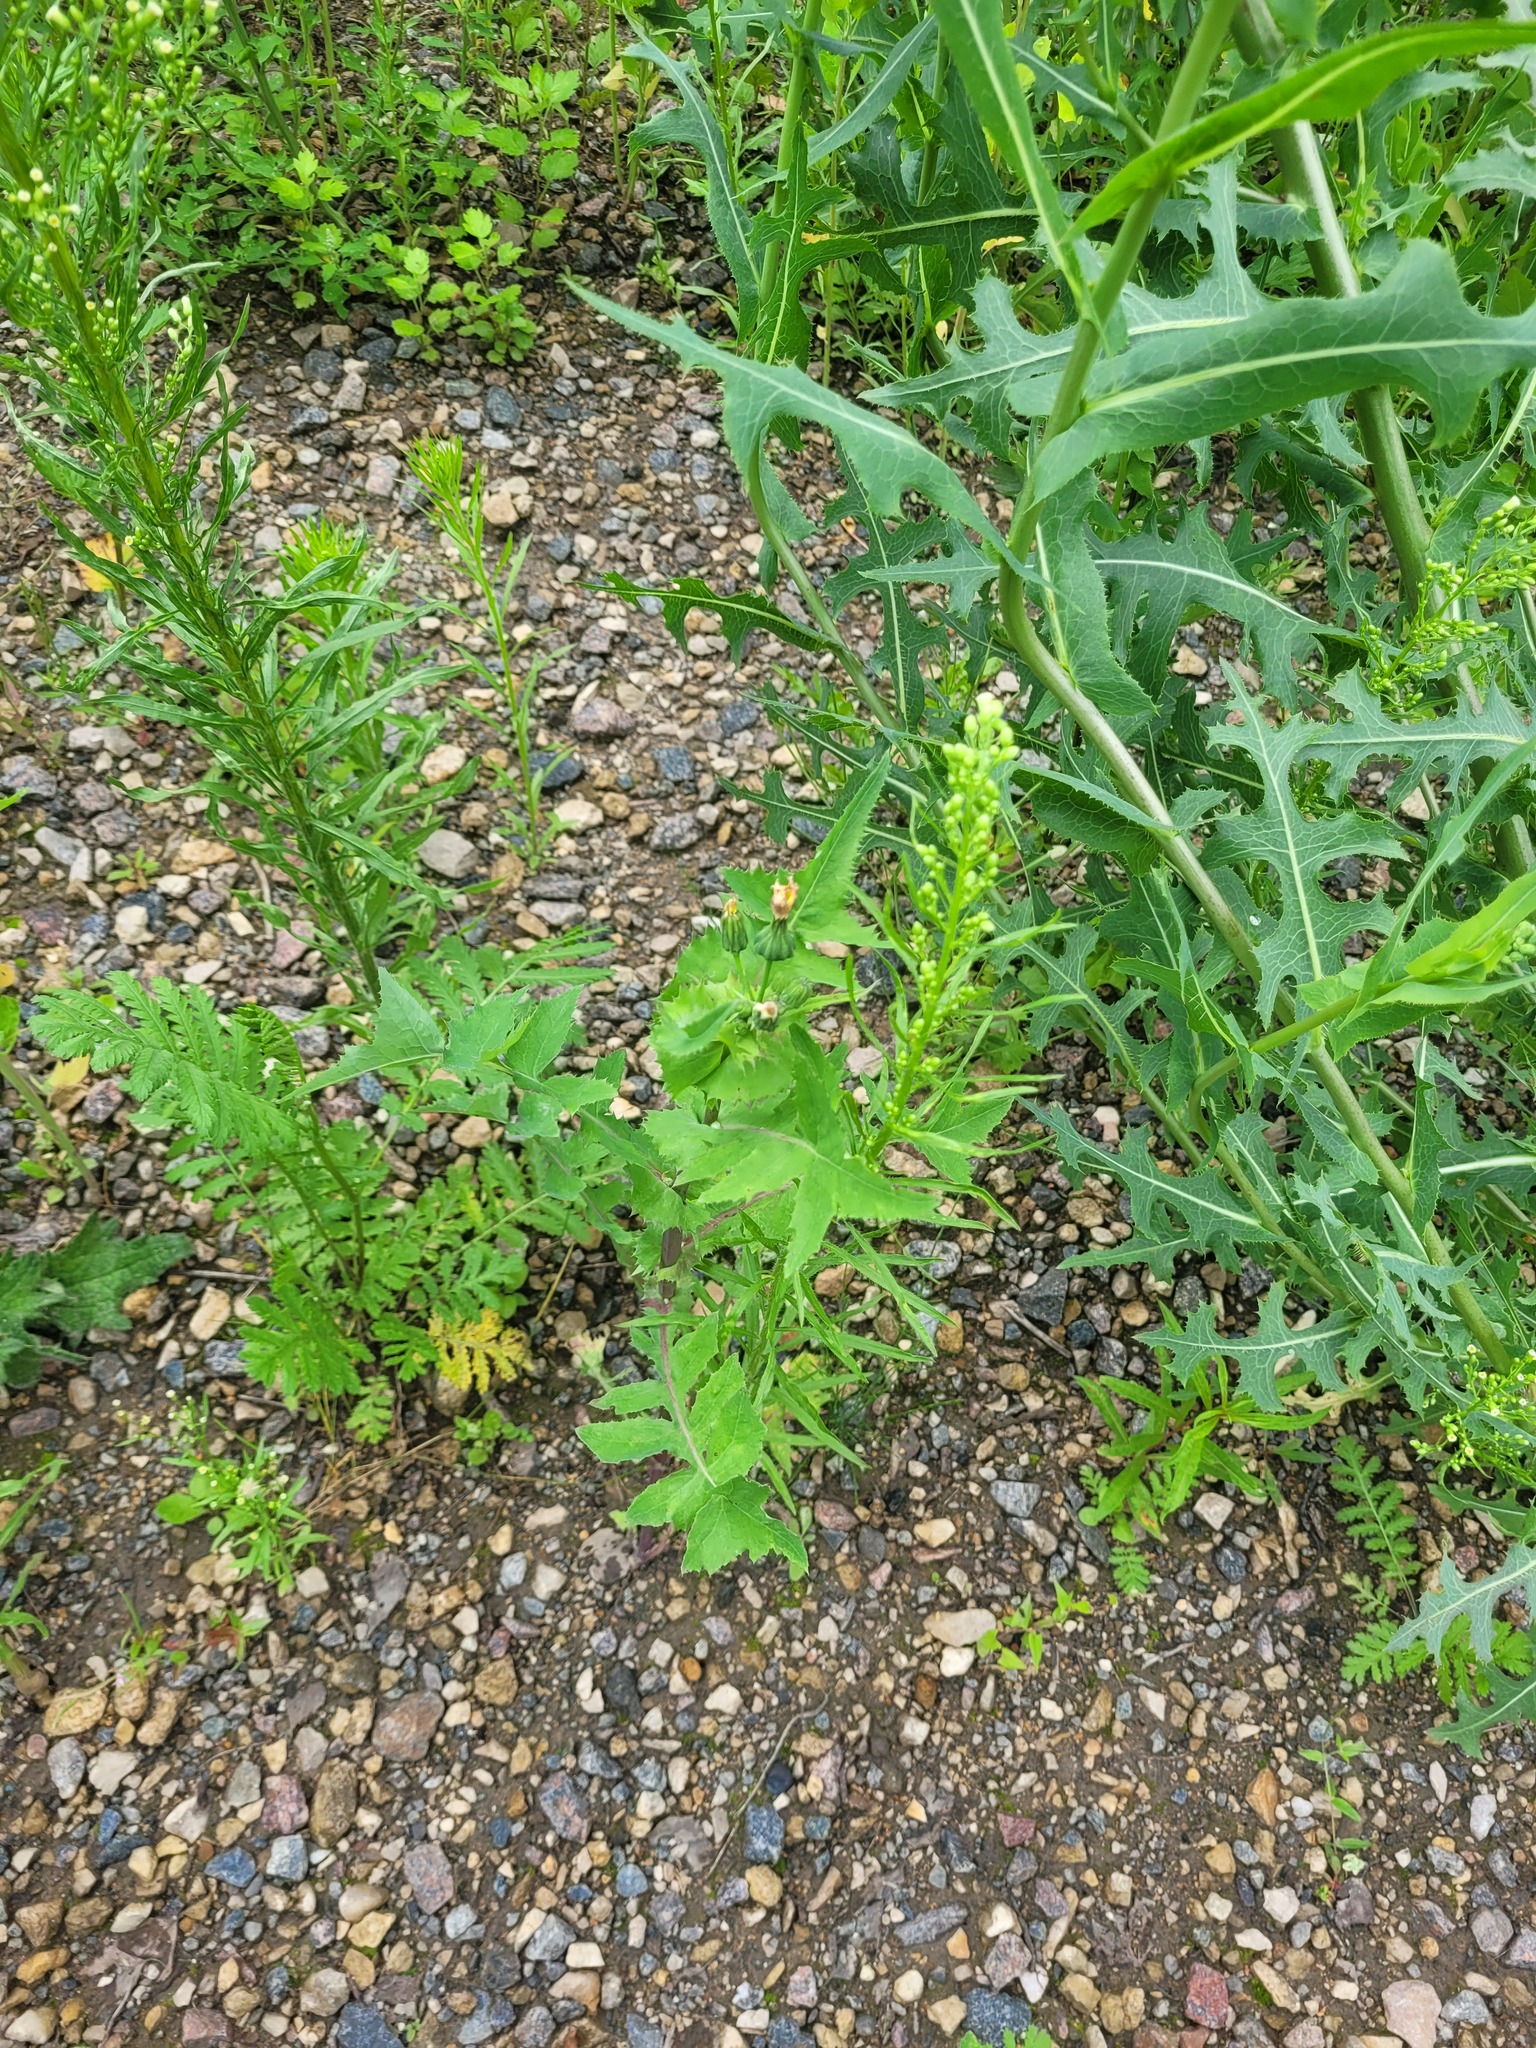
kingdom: Plantae
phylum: Tracheophyta
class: Magnoliopsida
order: Asterales
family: Asteraceae
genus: Sonchus
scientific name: Sonchus oleraceus
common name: Common sowthistle
